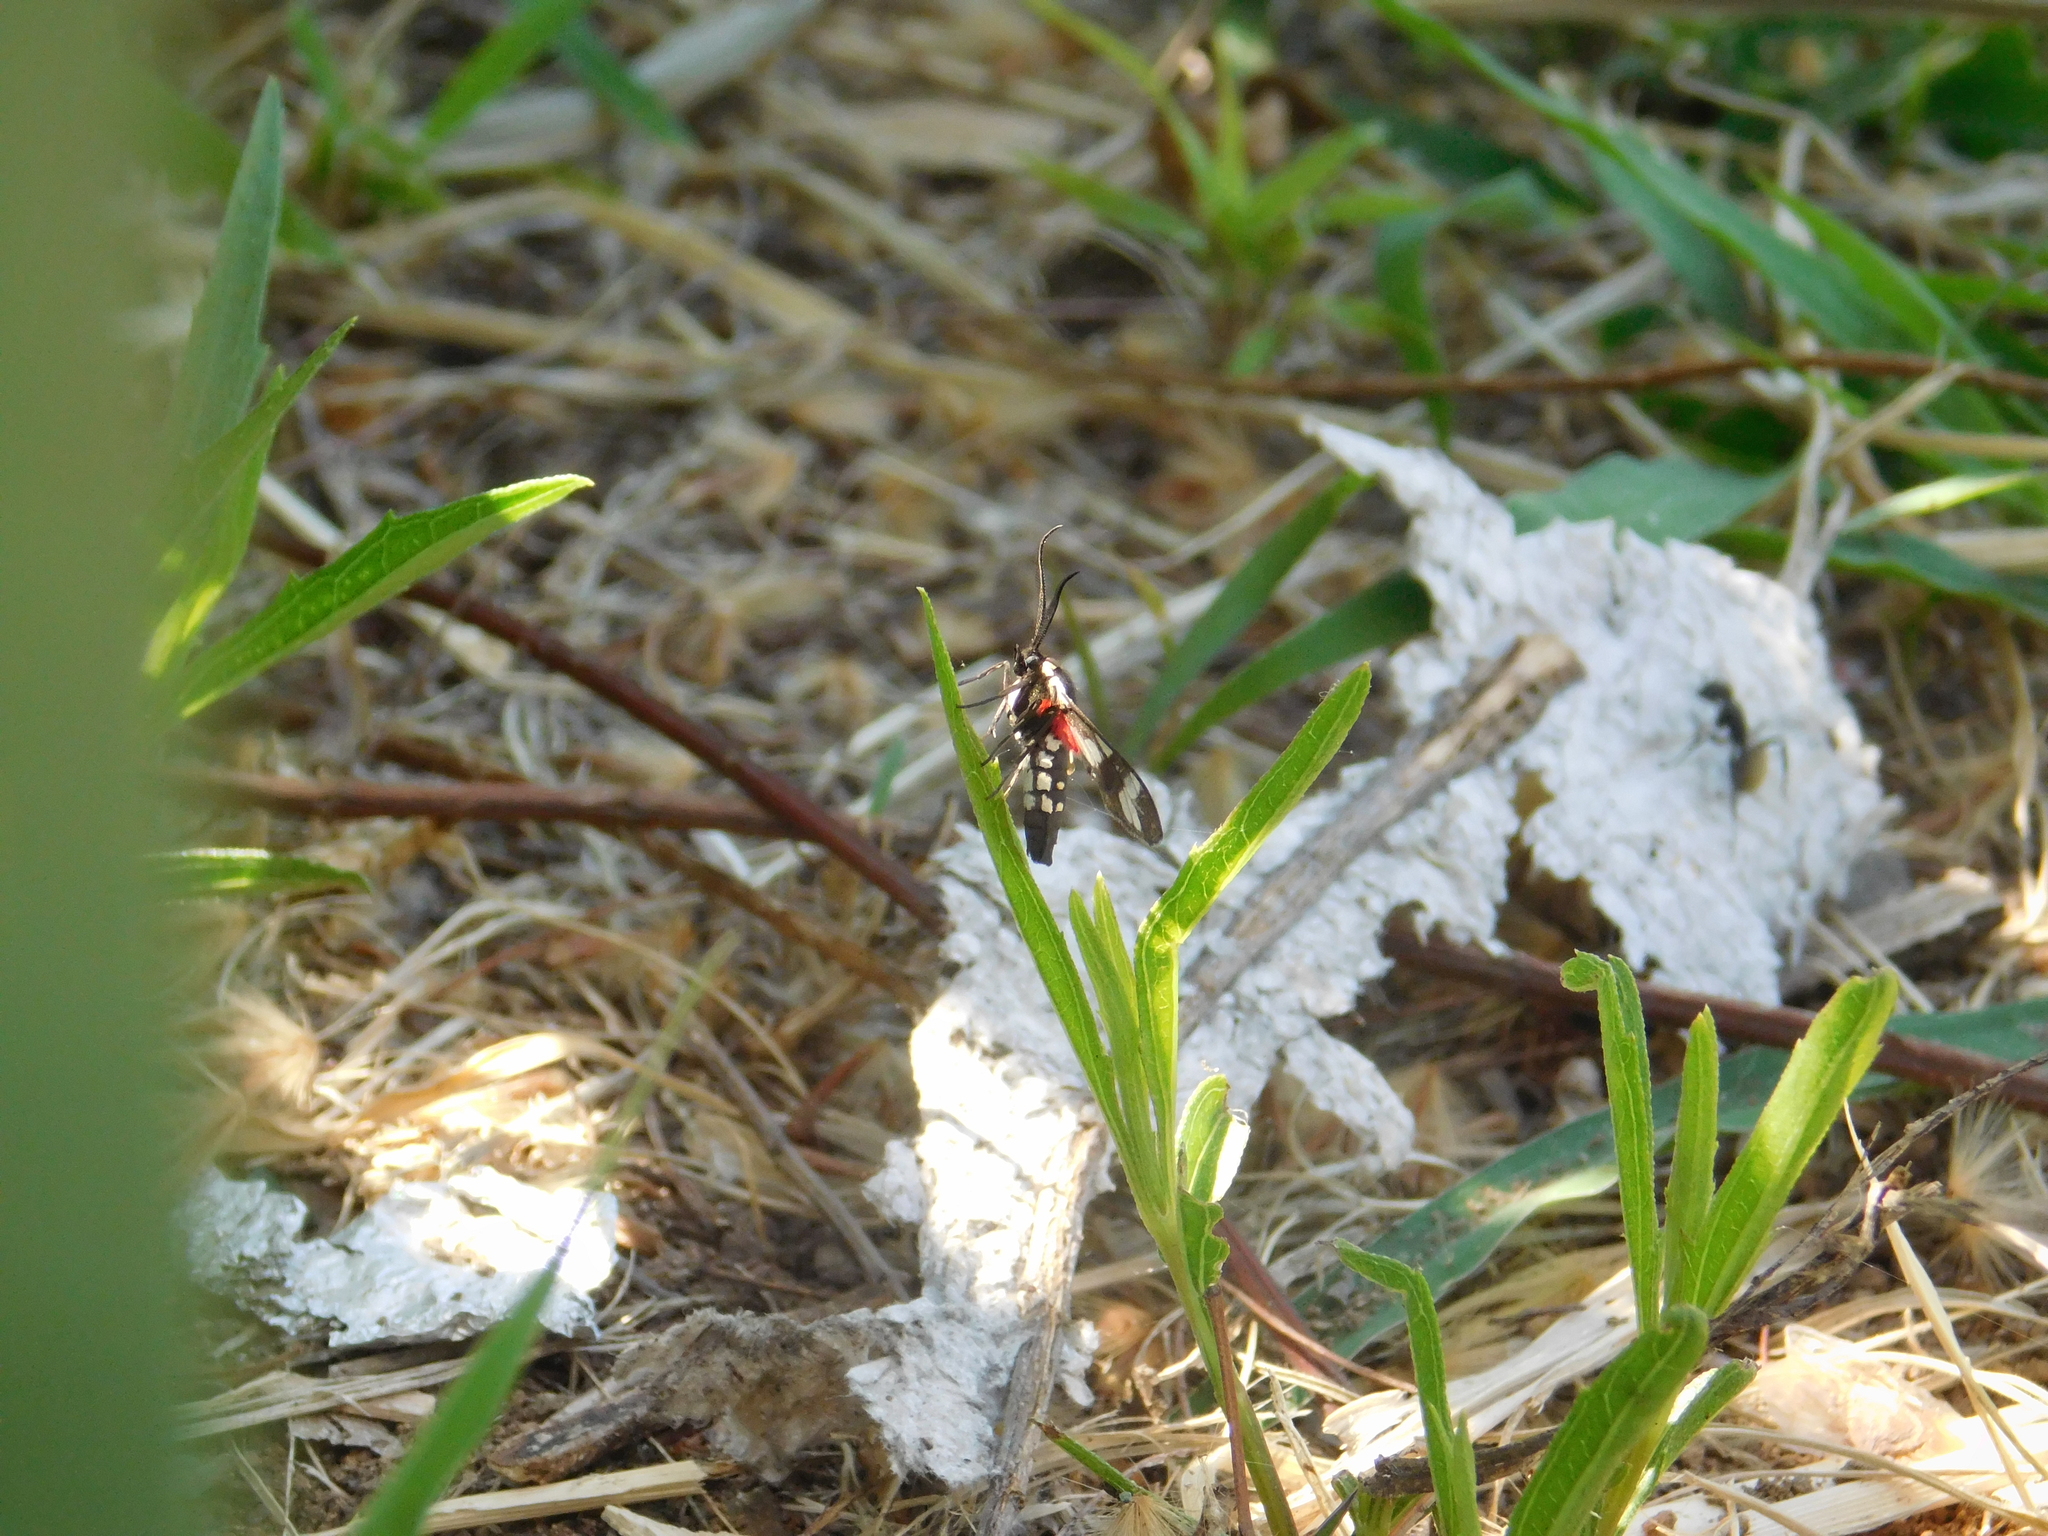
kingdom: Animalia
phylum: Arthropoda
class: Insecta
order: Lepidoptera
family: Erebidae
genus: Eurata
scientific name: Eurata hermione
